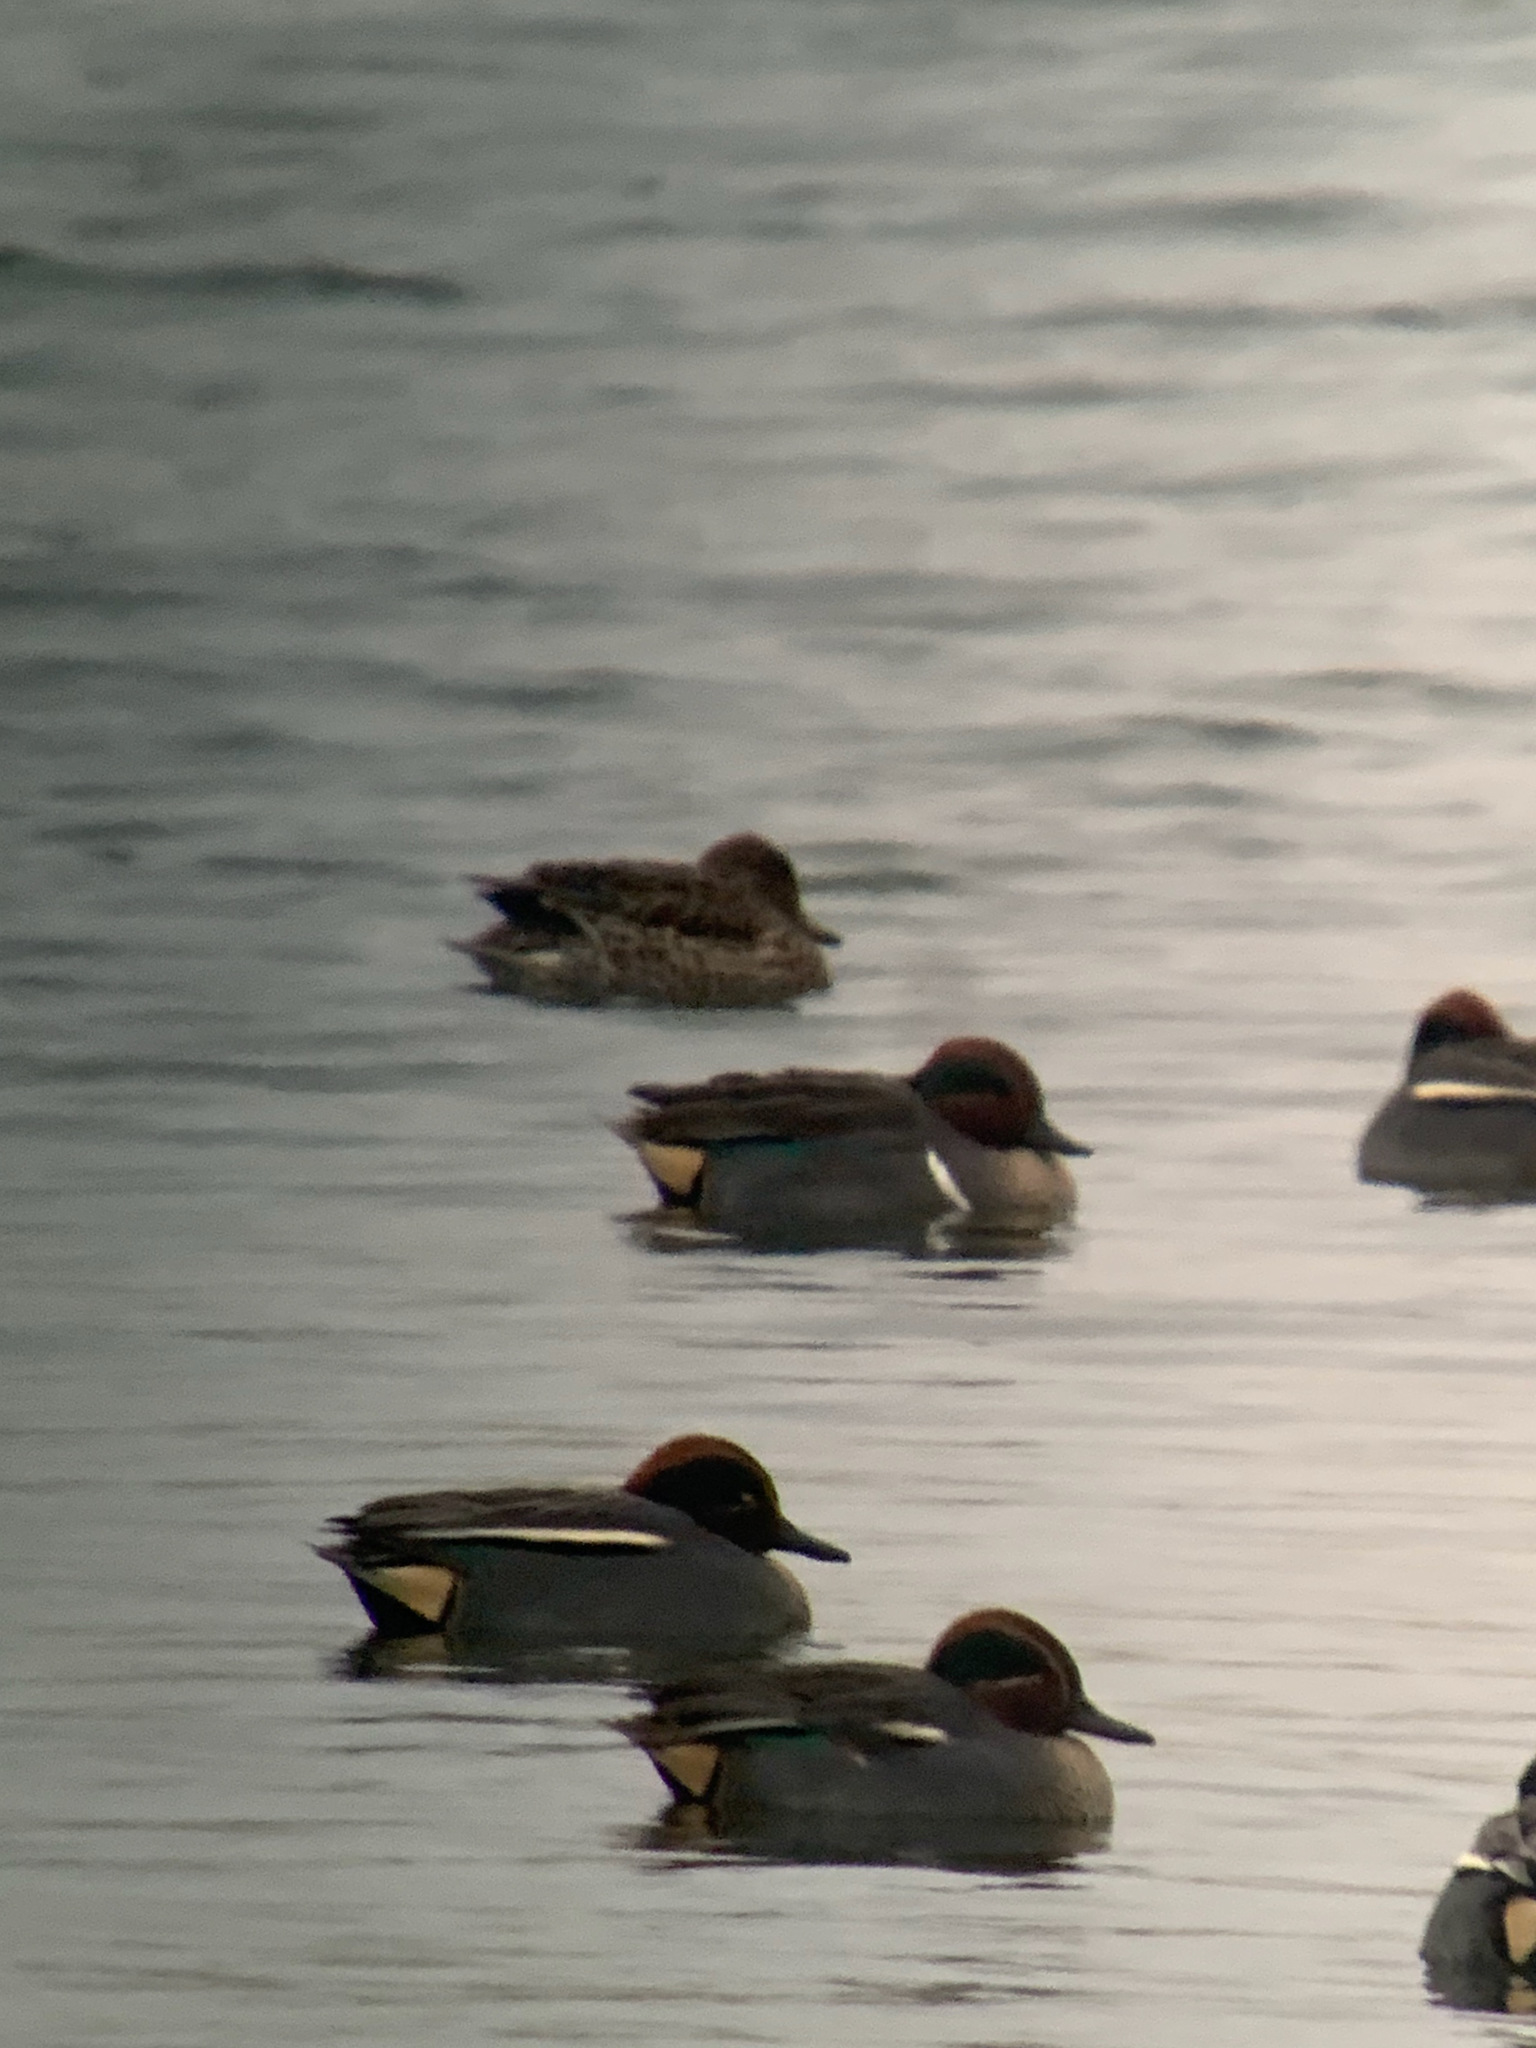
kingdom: Animalia
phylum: Chordata
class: Aves
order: Anseriformes
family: Anatidae
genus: Anas
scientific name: Anas carolinensis
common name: Green-winged teal
